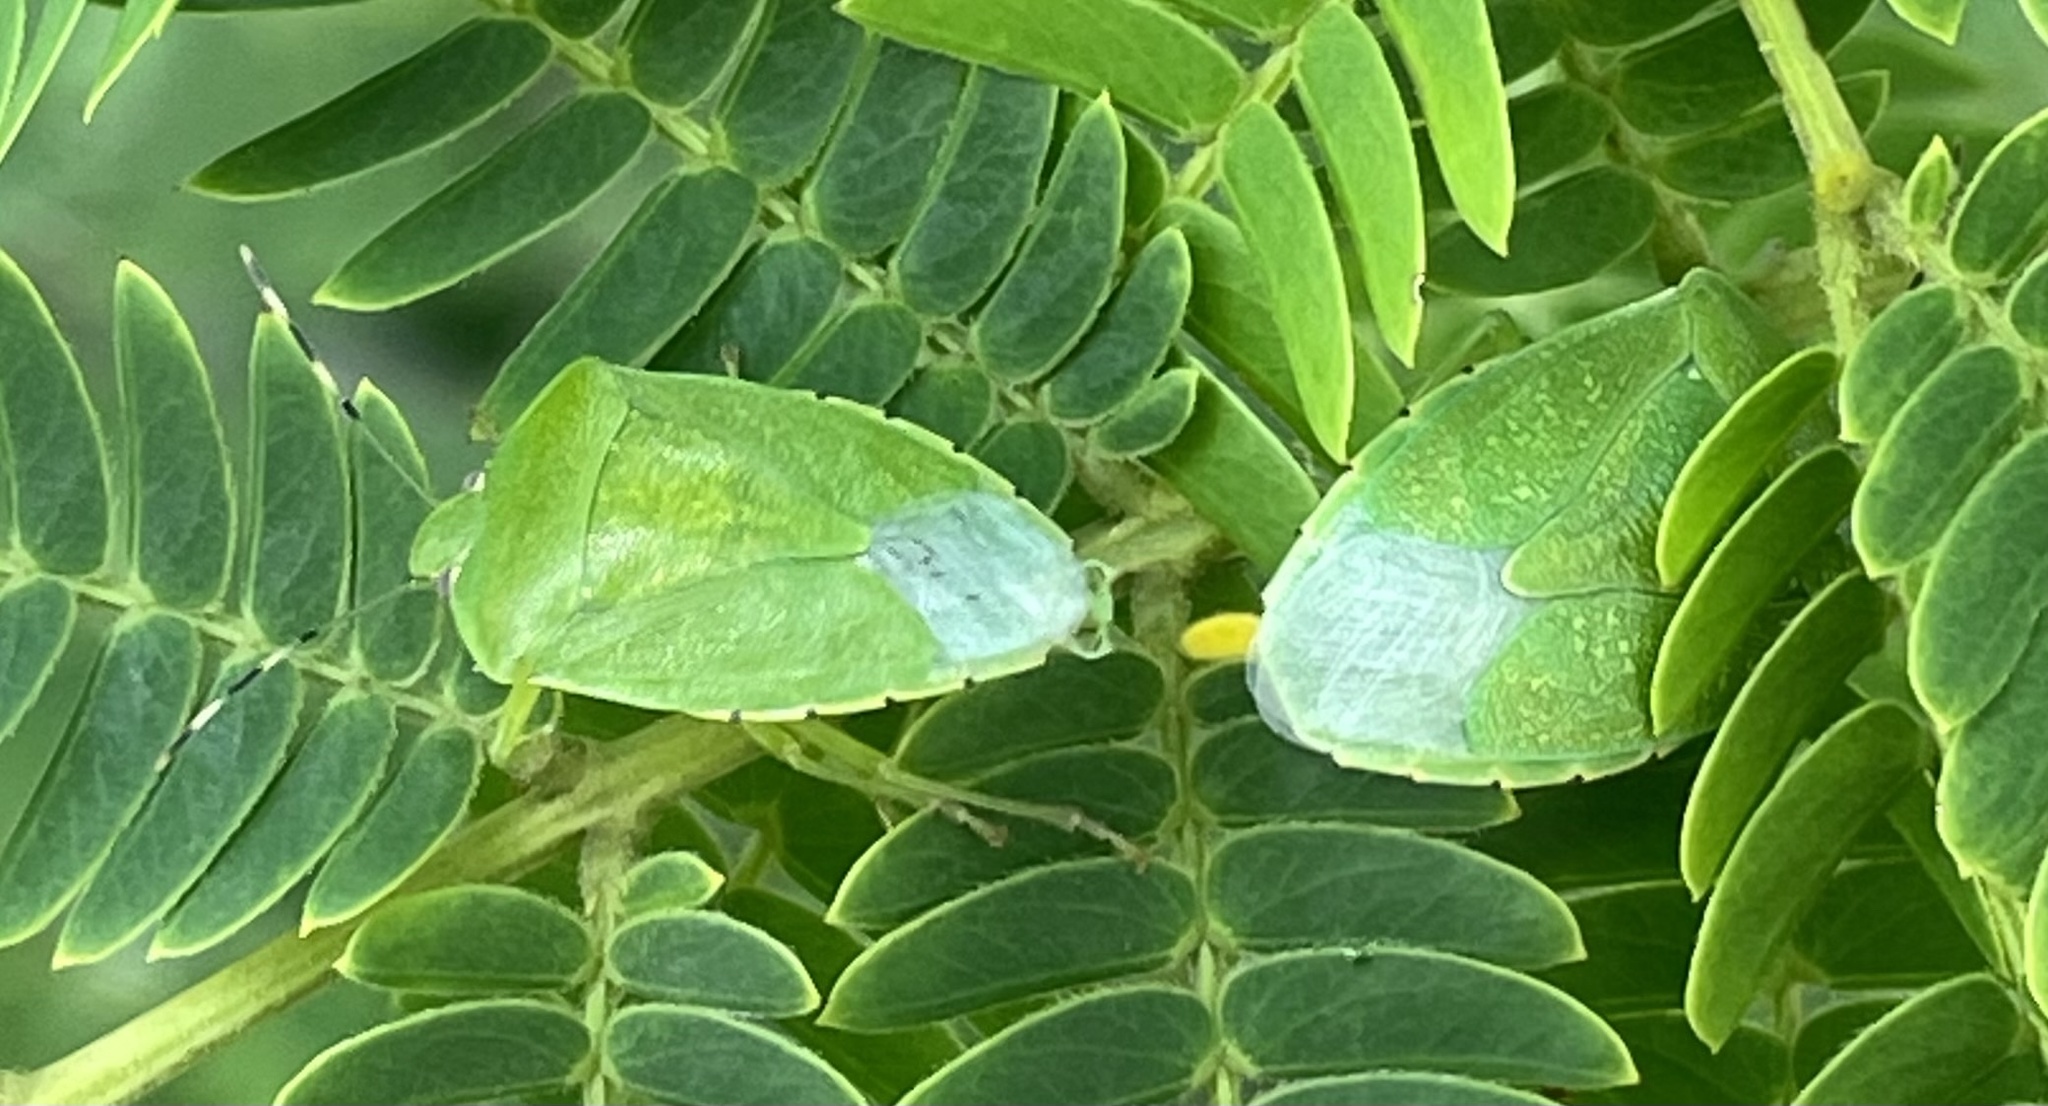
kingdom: Animalia
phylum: Arthropoda
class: Insecta
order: Hemiptera
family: Pentatomidae
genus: Chinavia
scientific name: Chinavia hilaris
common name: Green stink bug
